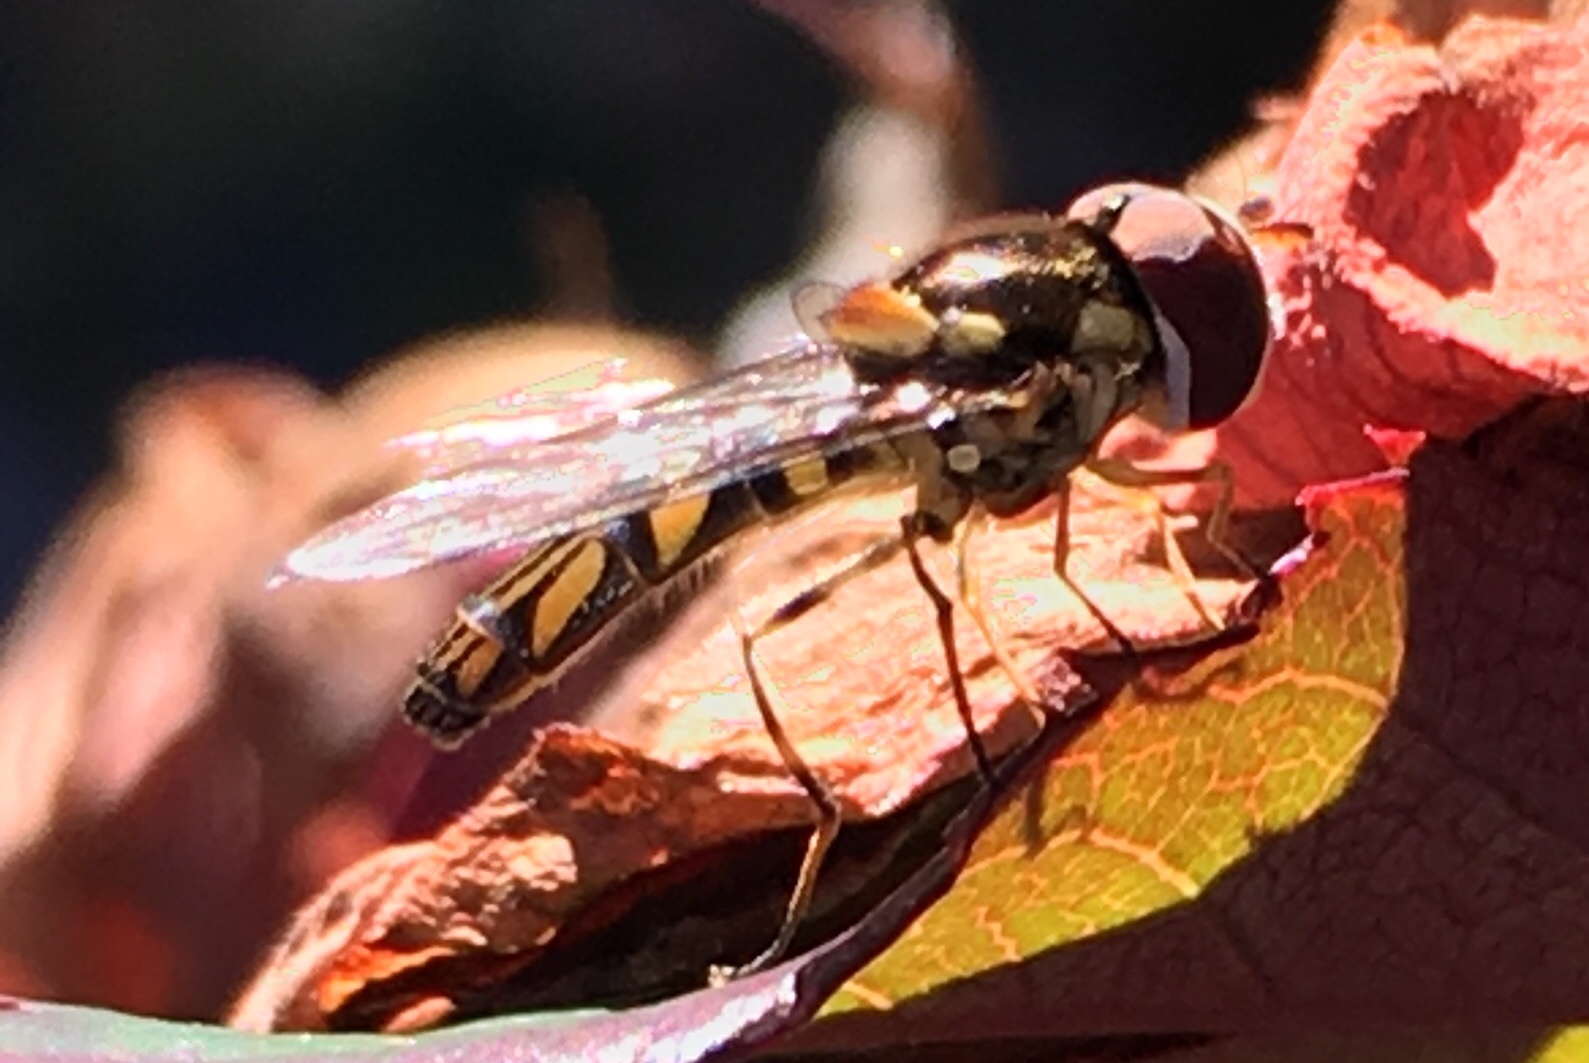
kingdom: Animalia
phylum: Arthropoda
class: Insecta
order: Diptera
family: Syrphidae
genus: Allograpta
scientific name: Allograpta obliqua
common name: Common oblique syrphid
